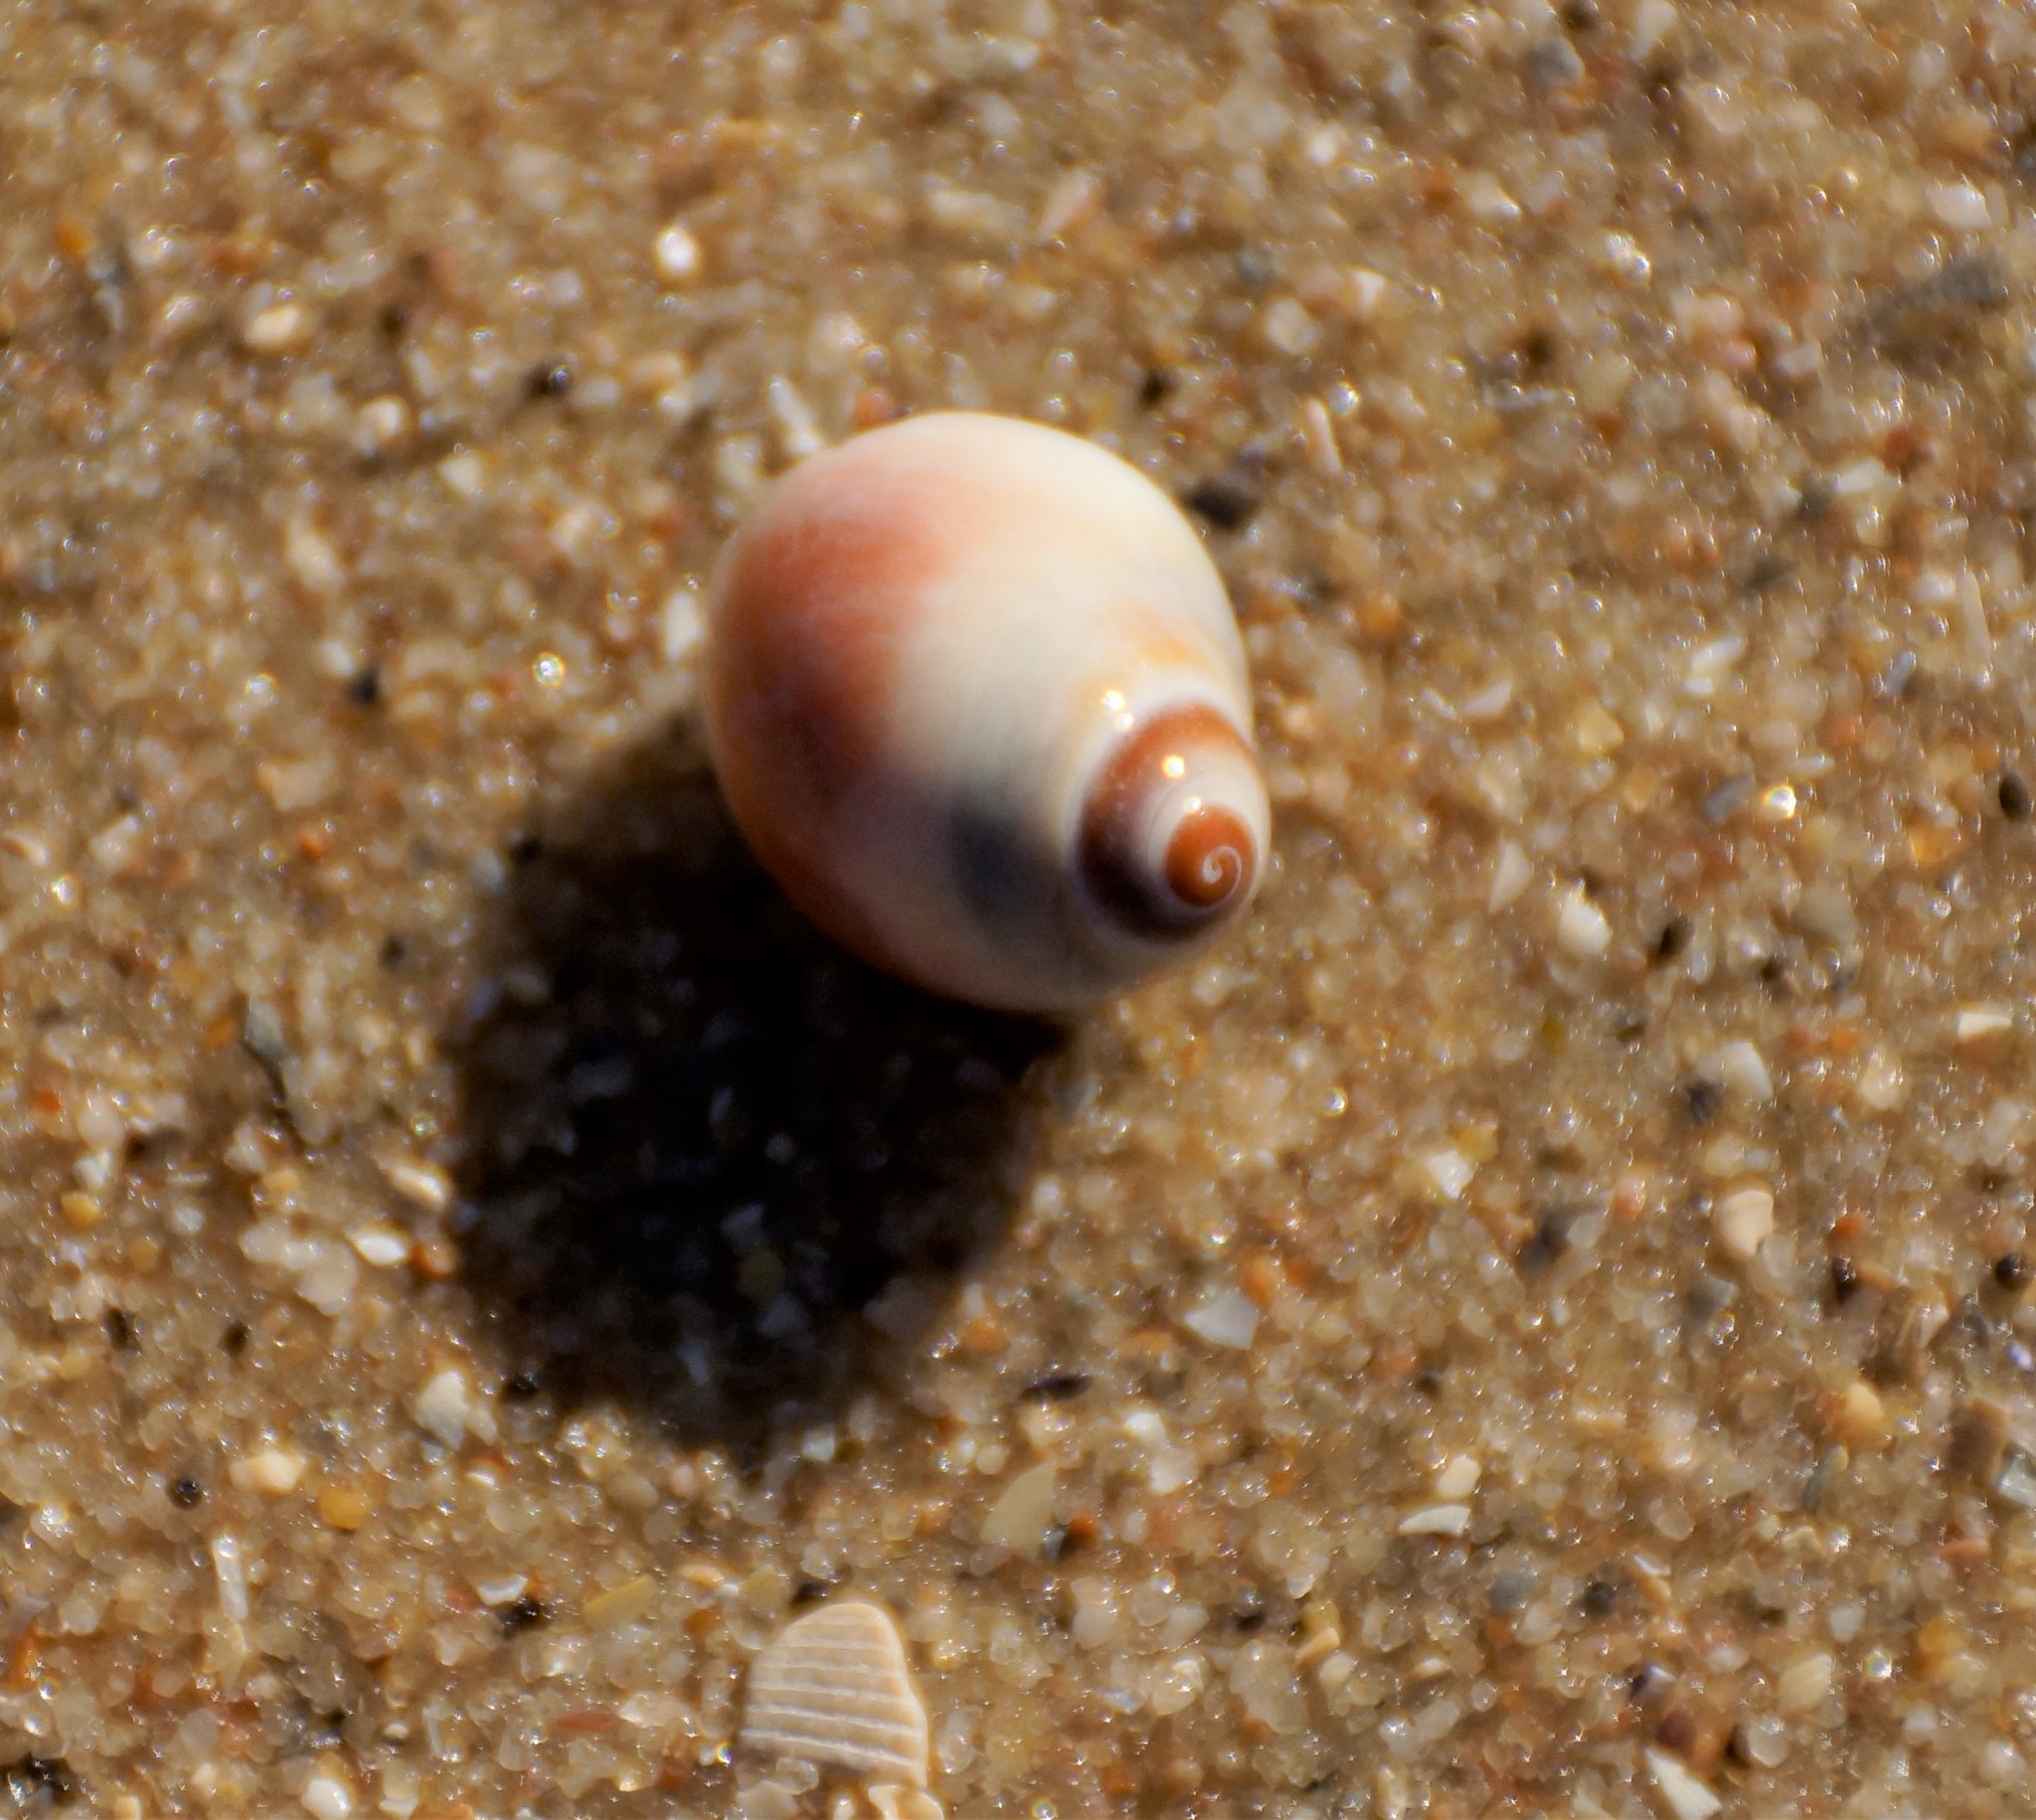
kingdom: Animalia
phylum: Mollusca
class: Gastropoda
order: Littorinimorpha
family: Naticidae
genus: Conuber
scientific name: Conuber conicum
